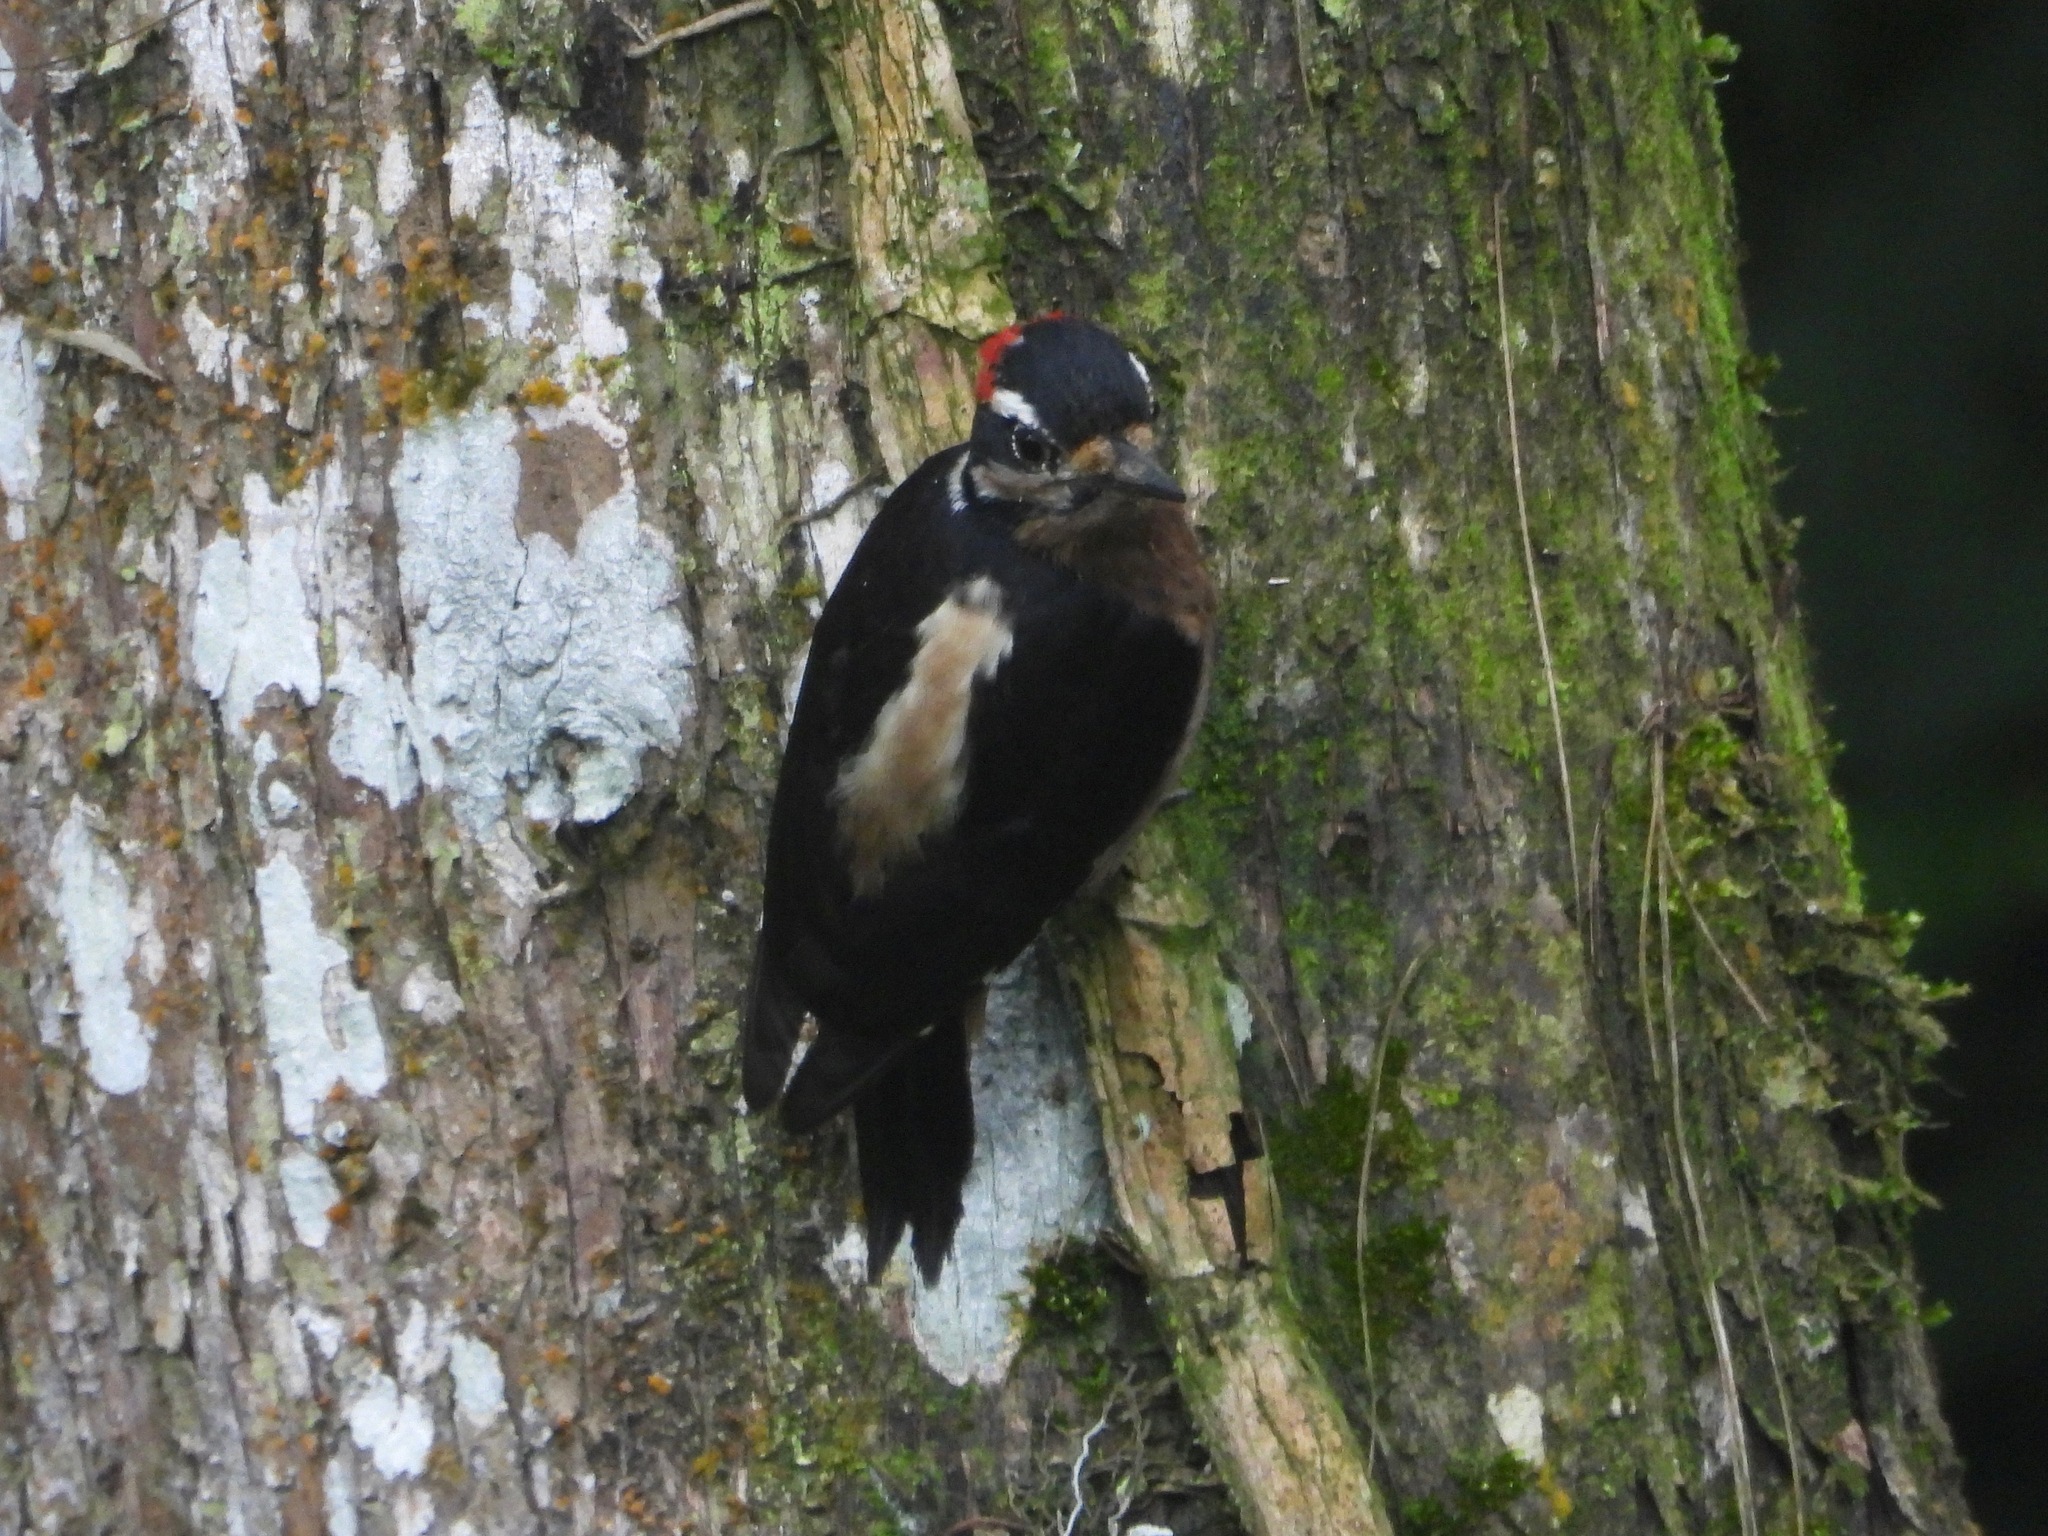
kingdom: Animalia
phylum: Chordata
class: Aves
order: Piciformes
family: Picidae
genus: Leuconotopicus
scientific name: Leuconotopicus villosus
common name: Hairy woodpecker
